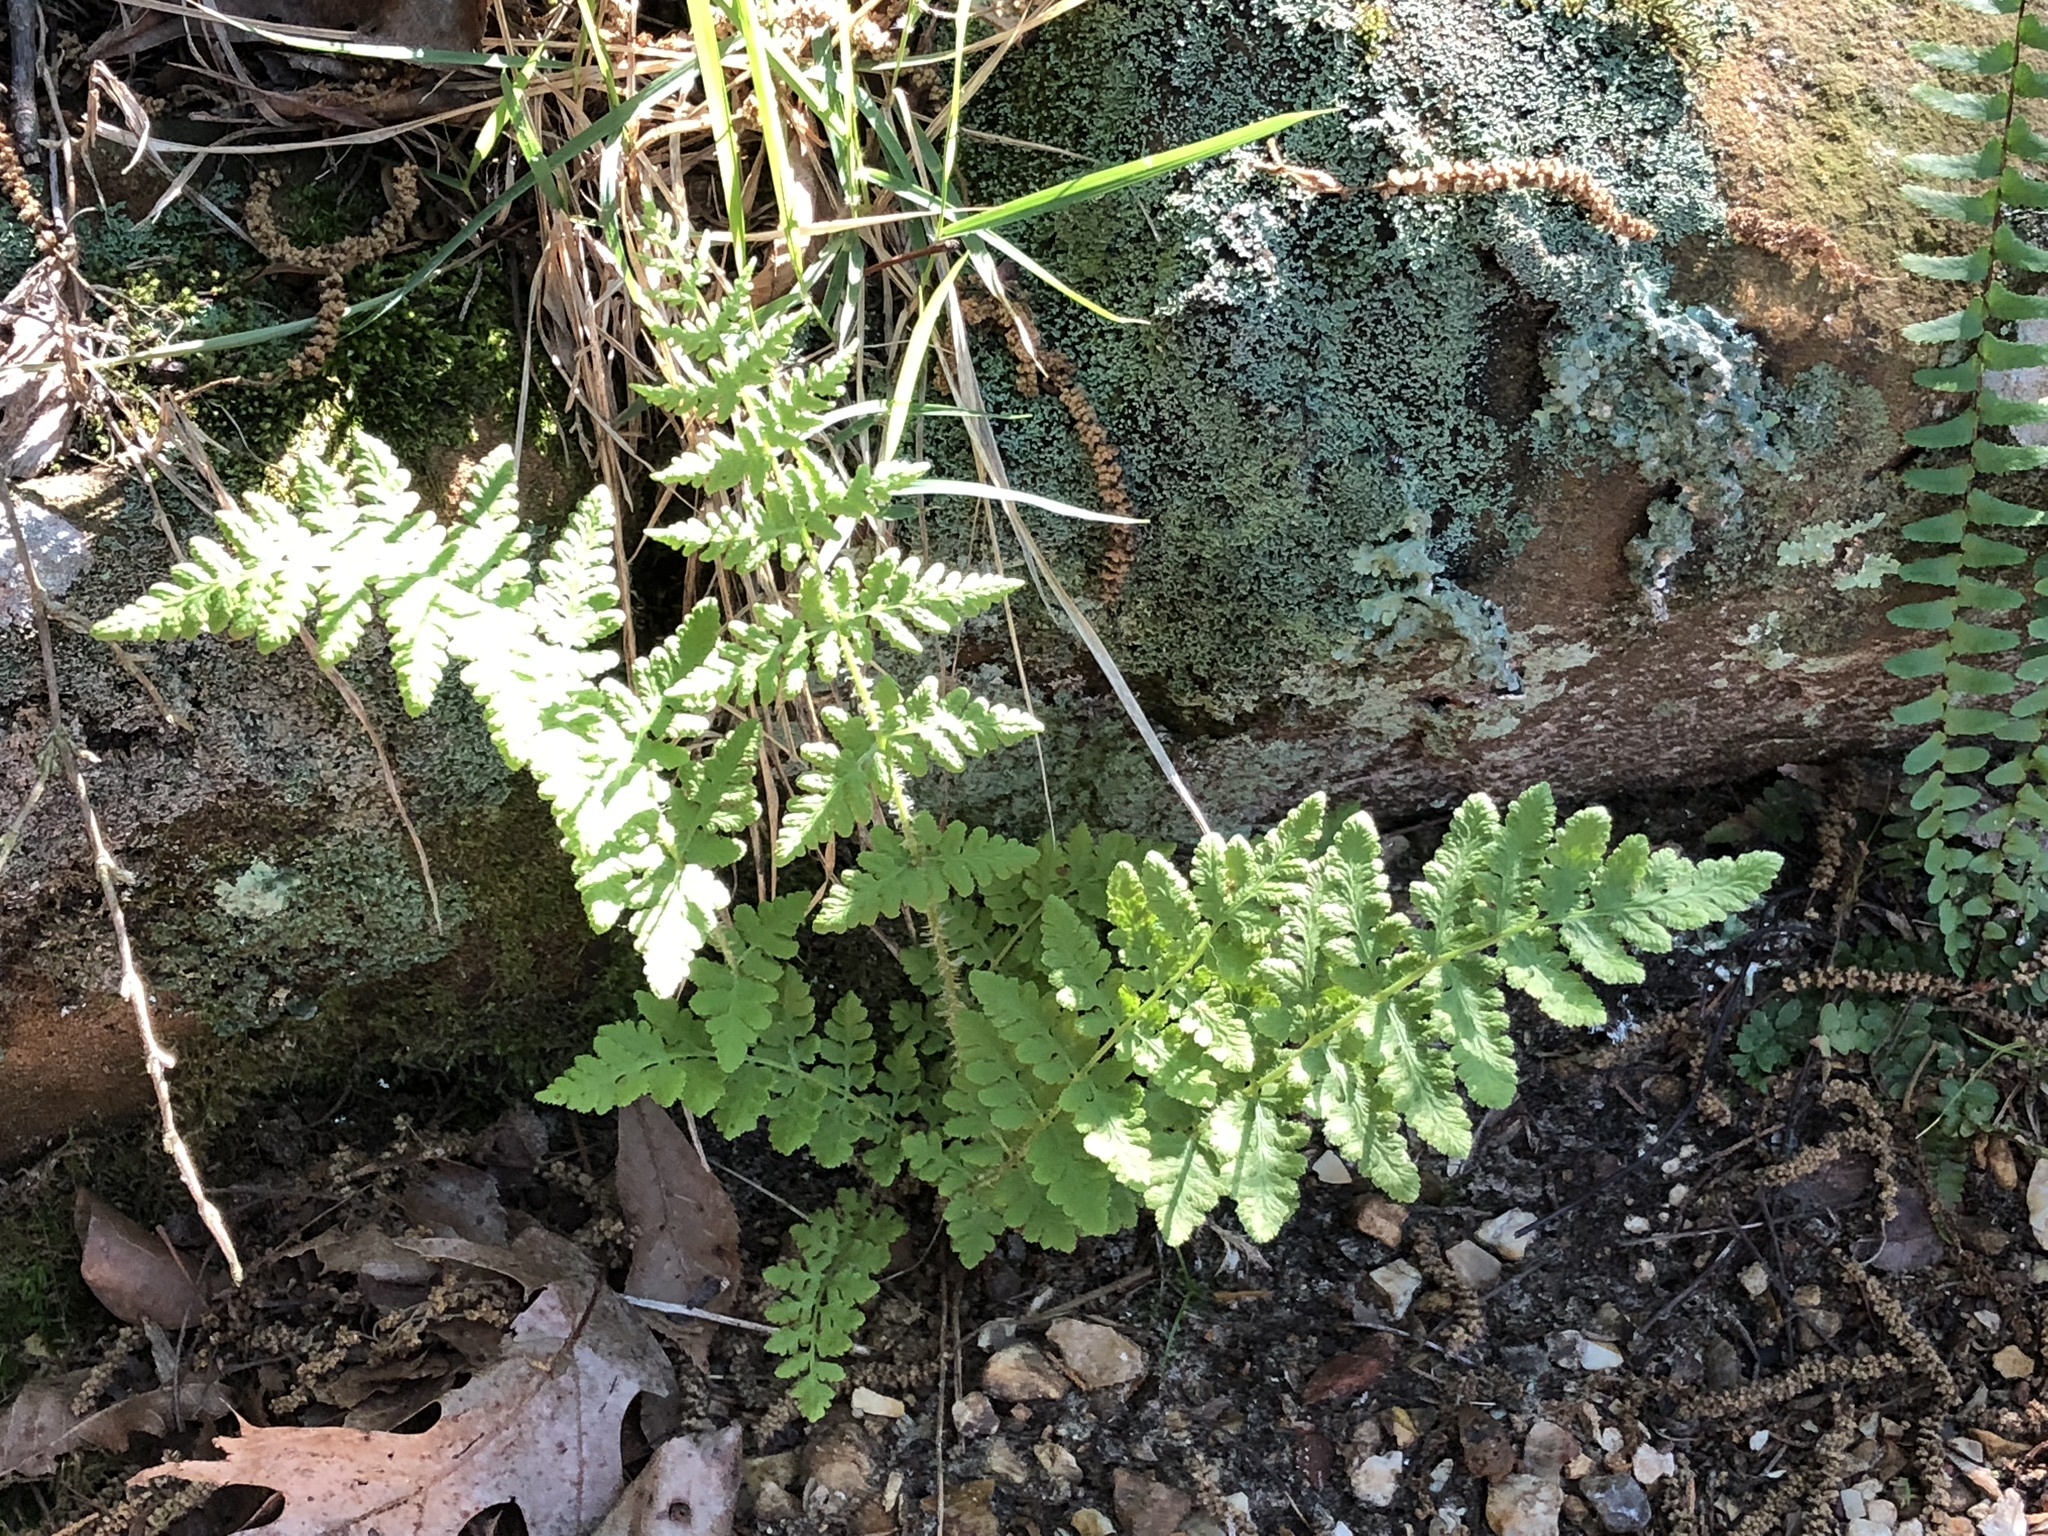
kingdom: Plantae
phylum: Tracheophyta
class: Polypodiopsida
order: Polypodiales
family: Woodsiaceae
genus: Physematium
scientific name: Physematium obtusum
